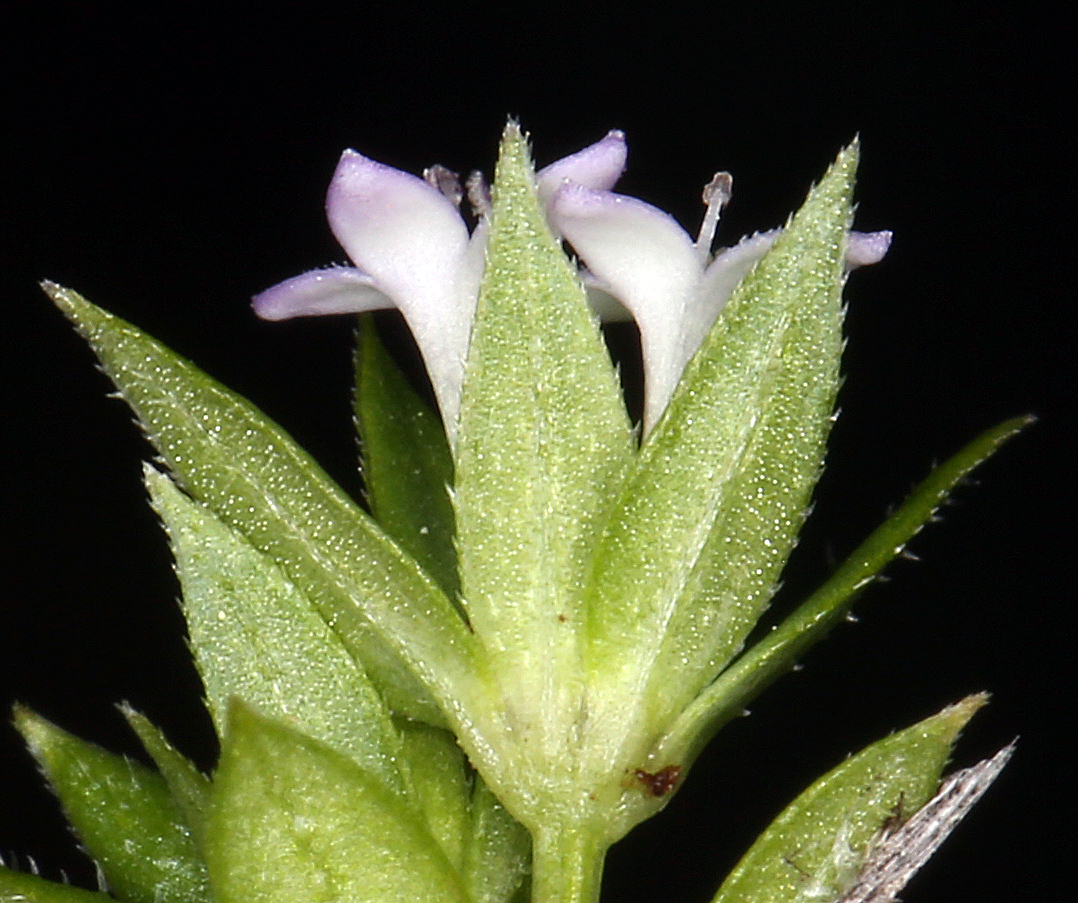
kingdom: Plantae
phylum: Tracheophyta
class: Magnoliopsida
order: Gentianales
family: Rubiaceae
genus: Sherardia
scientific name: Sherardia arvensis
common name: Field madder
